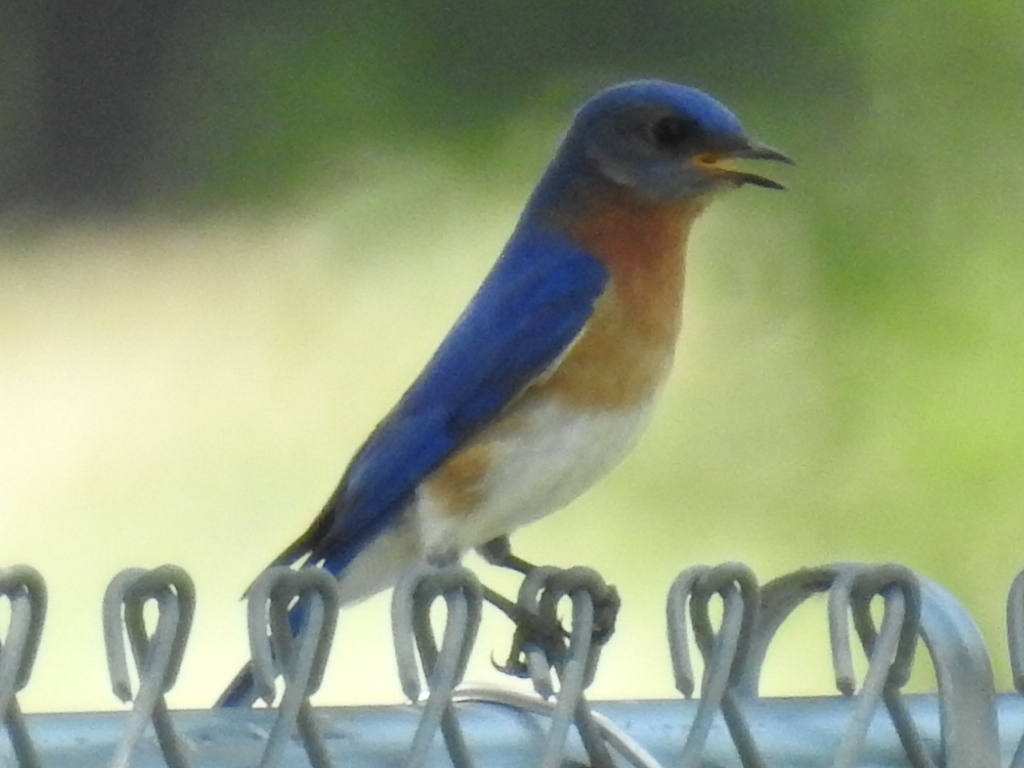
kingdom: Animalia
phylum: Chordata
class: Aves
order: Passeriformes
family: Turdidae
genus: Sialia
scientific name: Sialia sialis
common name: Eastern bluebird
